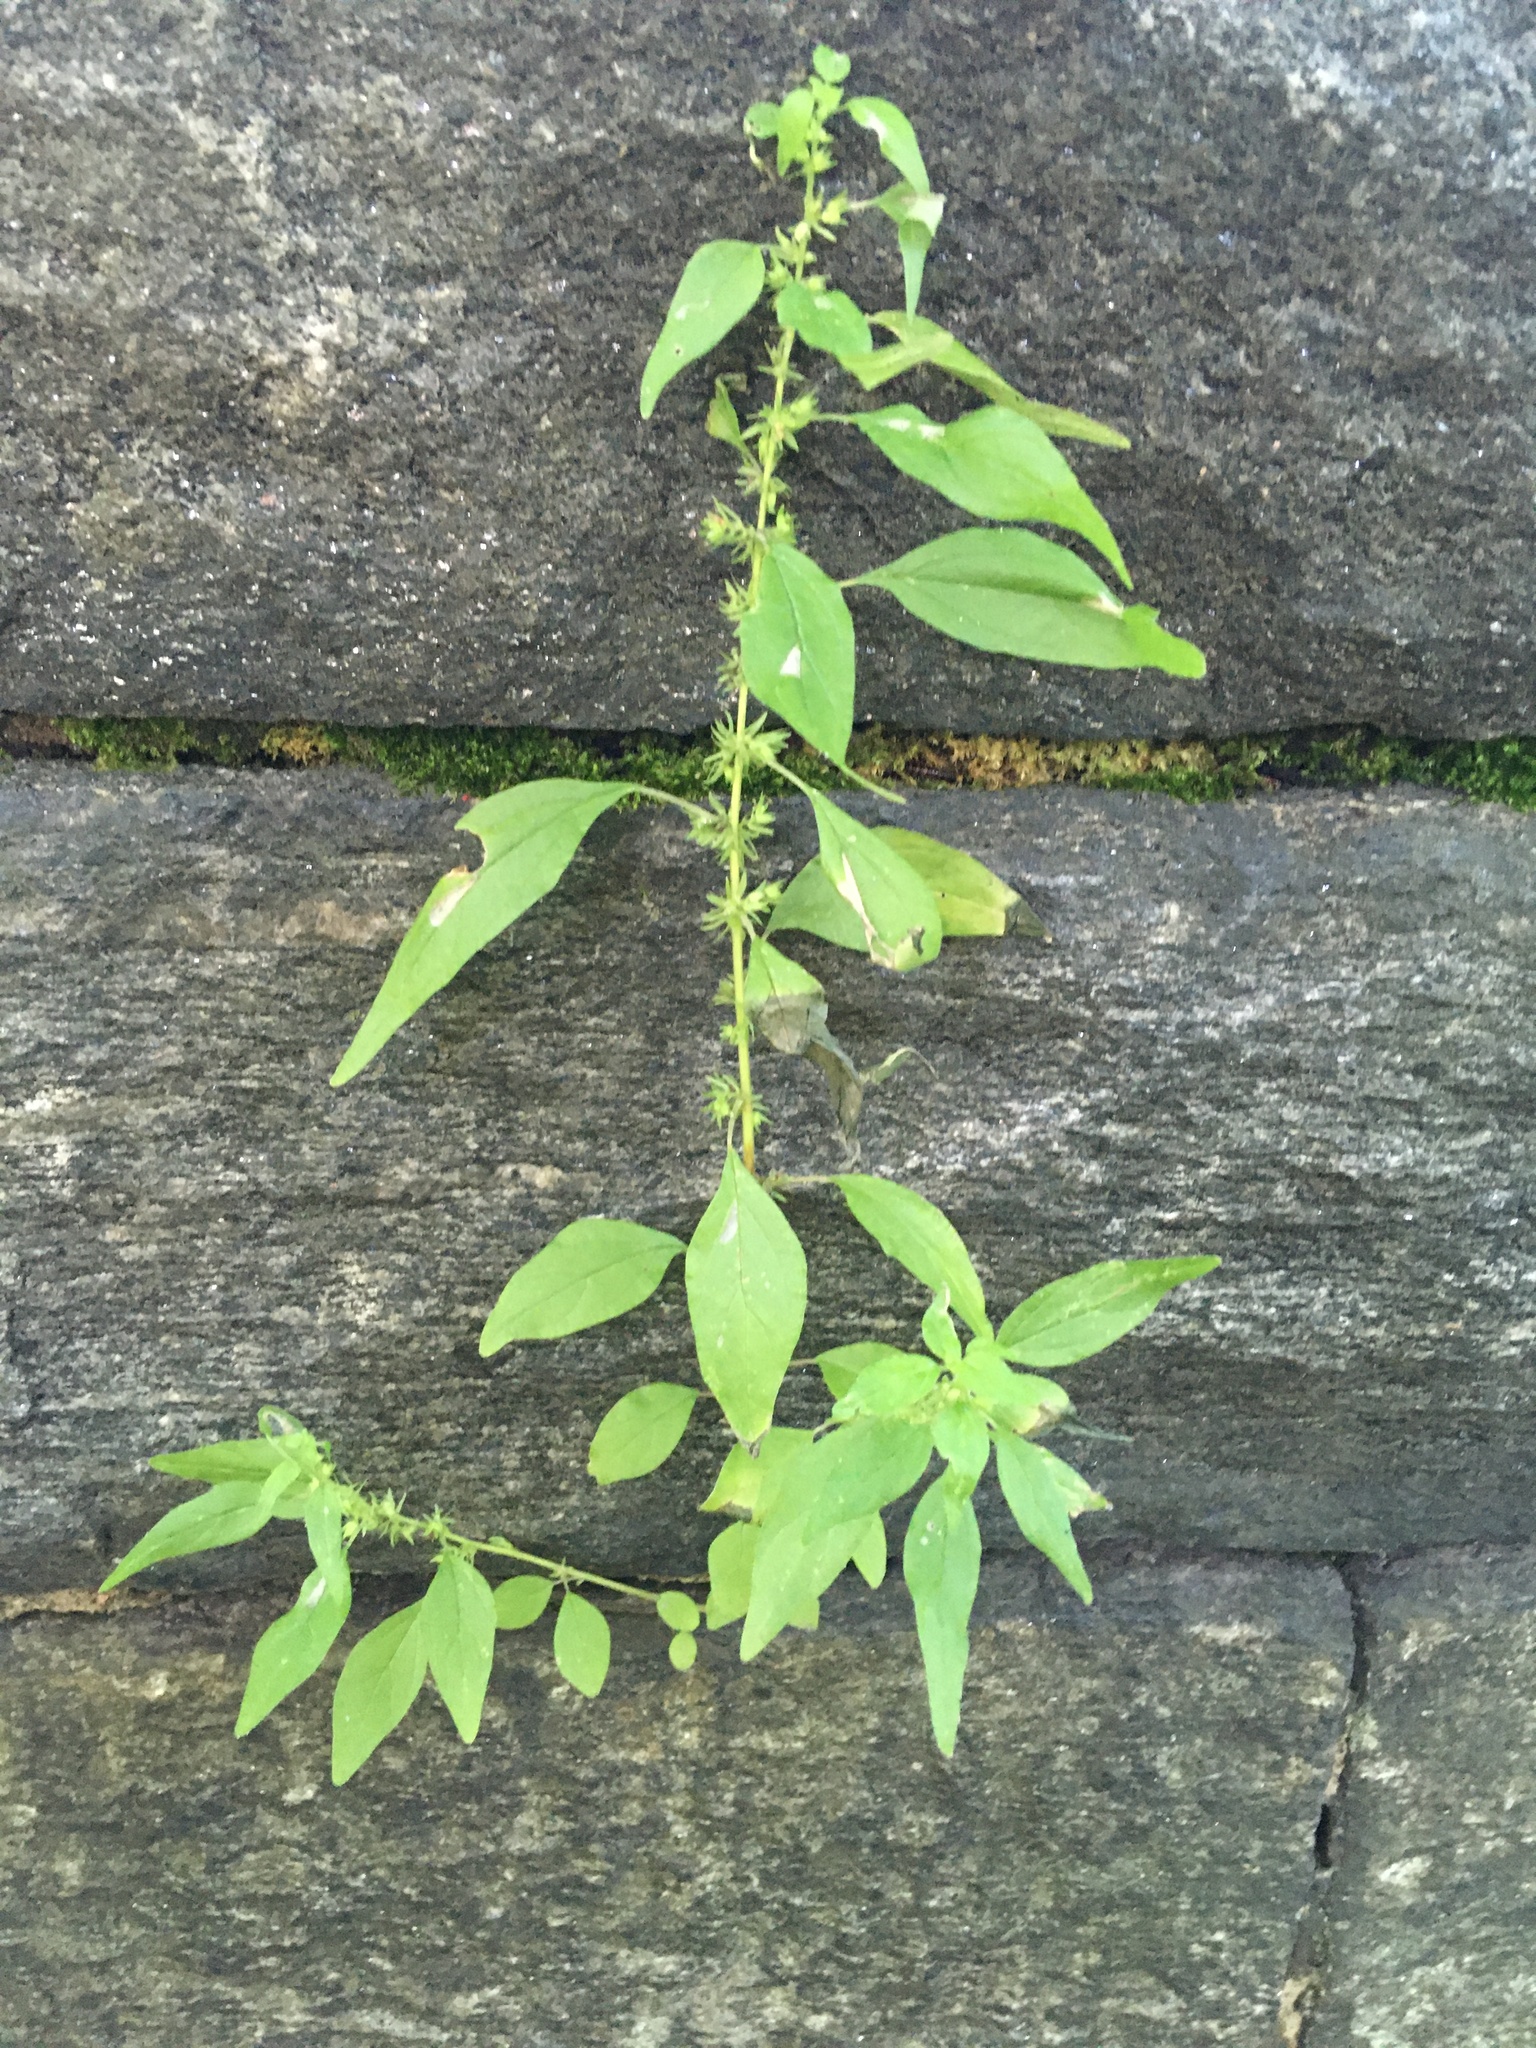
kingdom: Plantae
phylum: Tracheophyta
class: Magnoliopsida
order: Rosales
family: Urticaceae
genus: Parietaria
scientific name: Parietaria pensylvanica
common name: Pennsylvania pellitory
